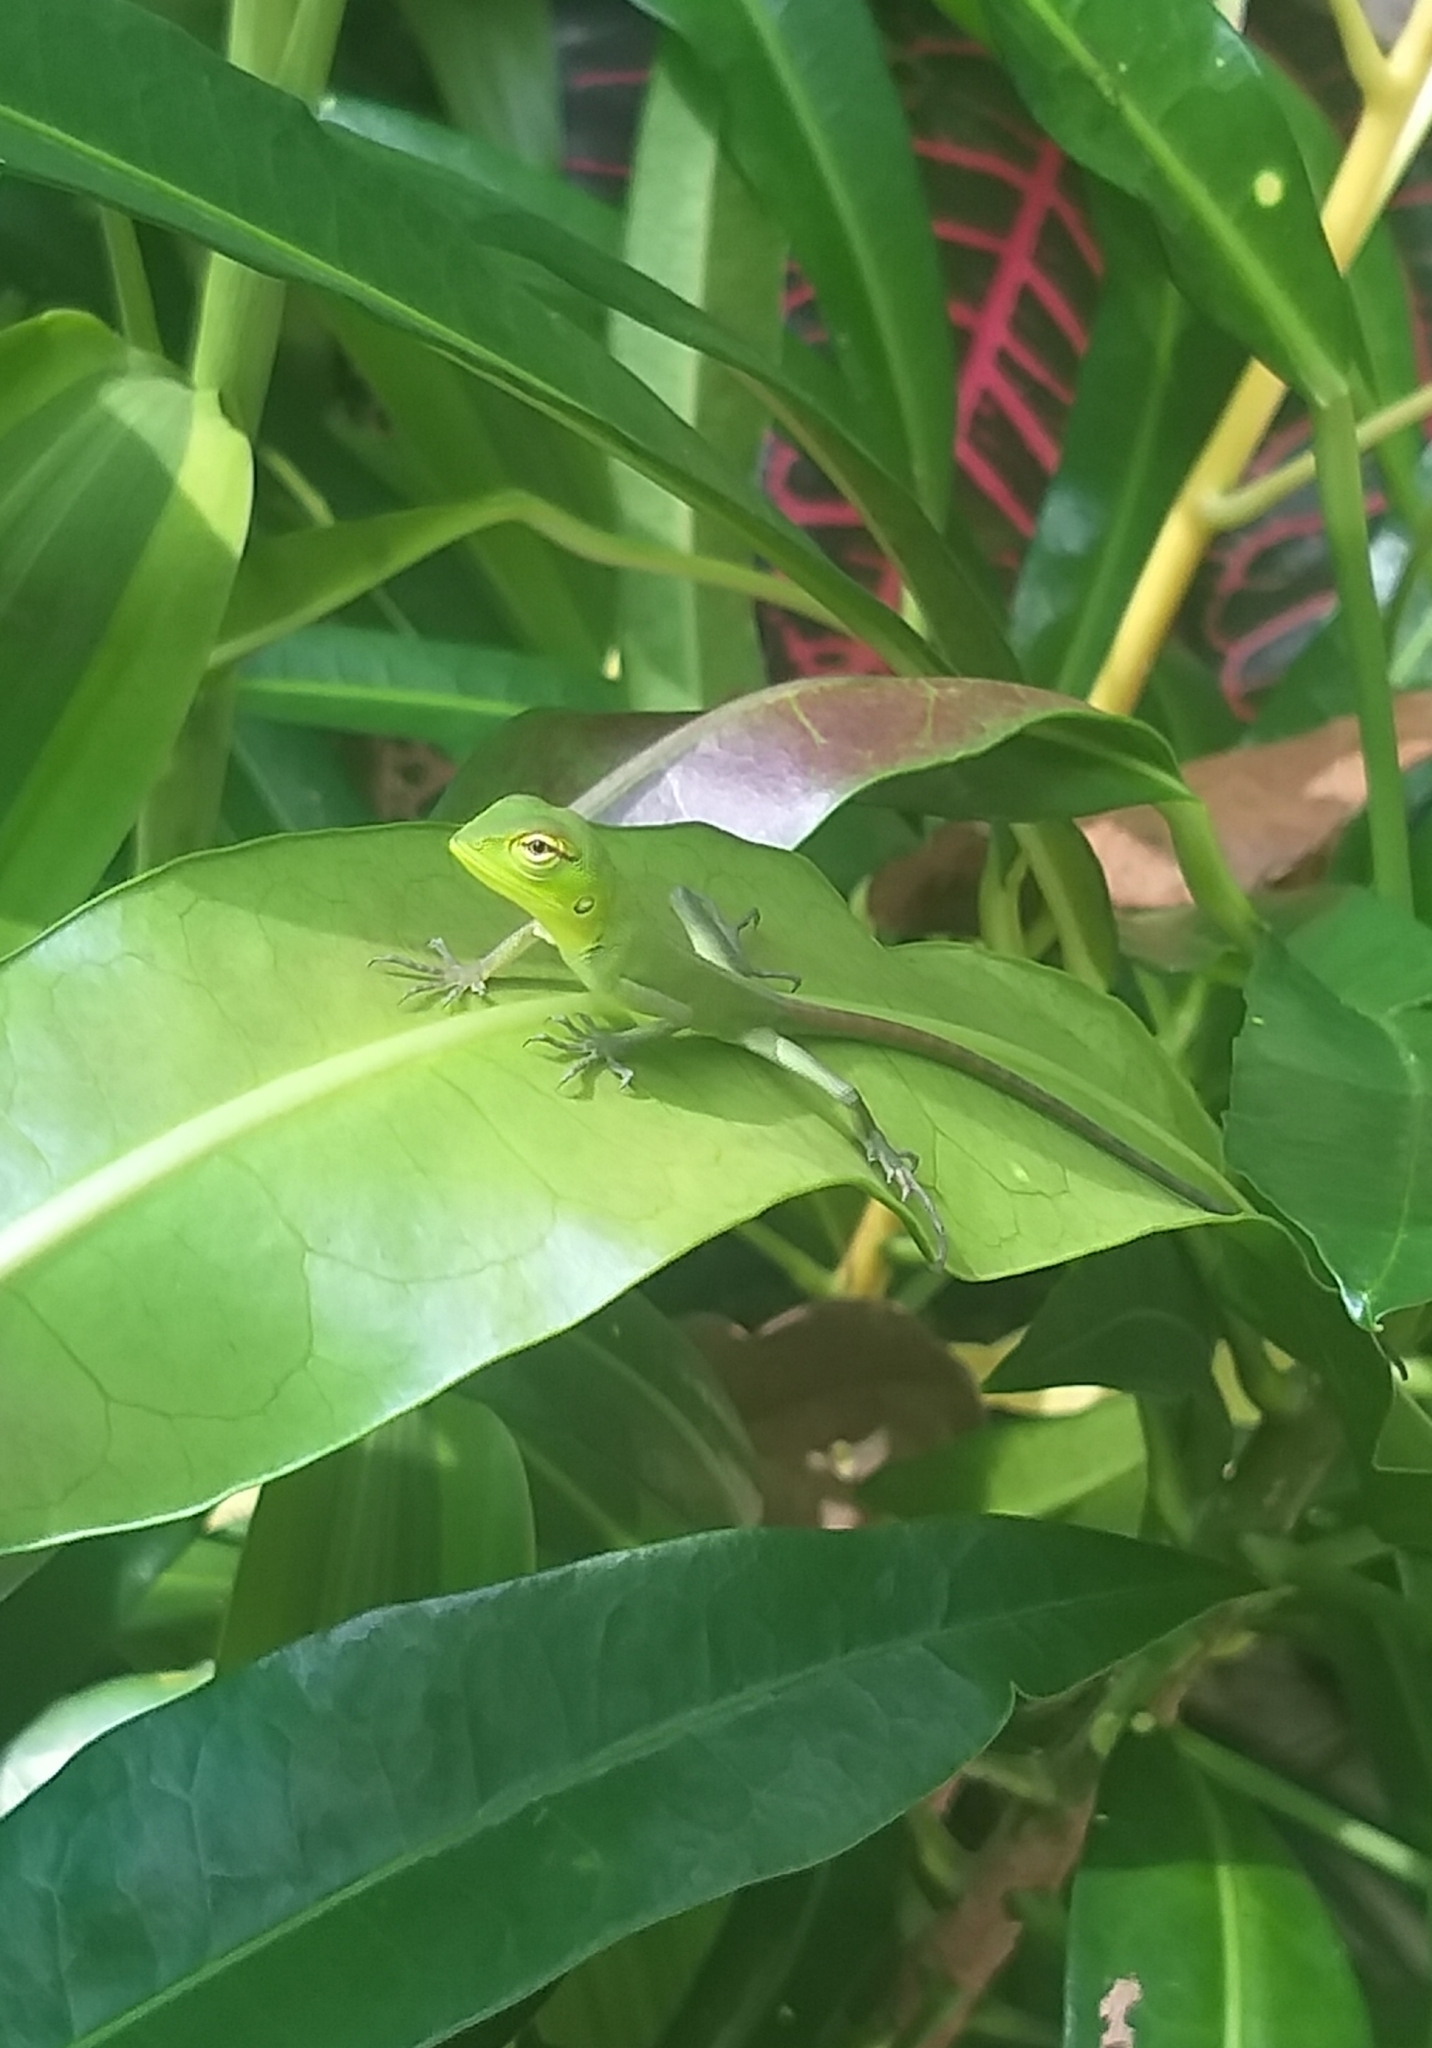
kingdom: Animalia
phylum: Chordata
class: Squamata
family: Agamidae
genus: Calotes
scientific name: Calotes calotes
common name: Common green forest lizard
